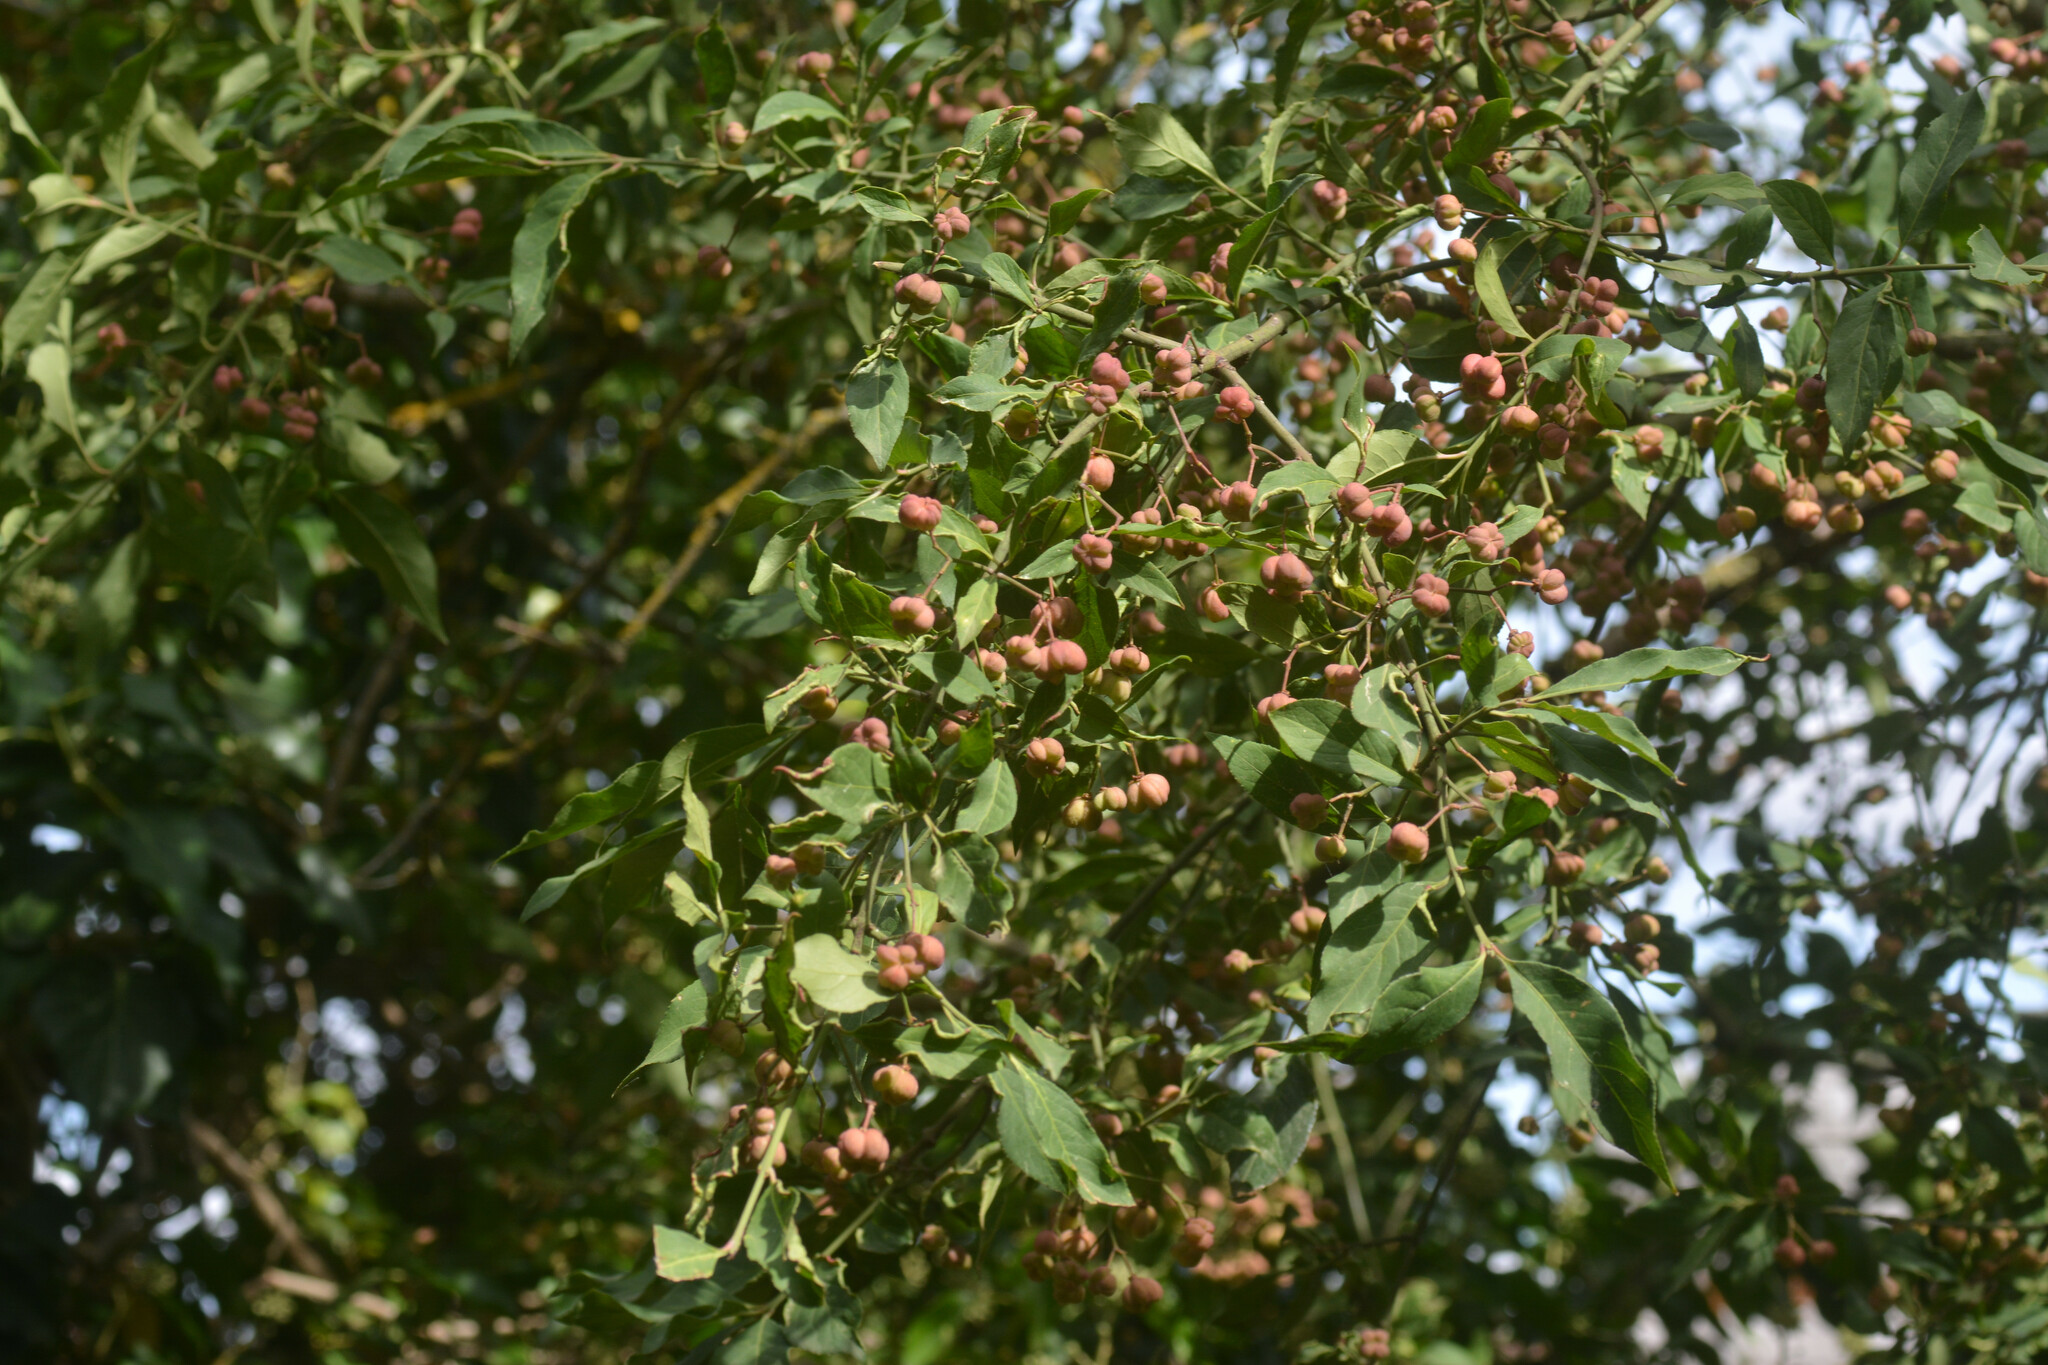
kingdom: Plantae
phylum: Tracheophyta
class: Magnoliopsida
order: Celastrales
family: Celastraceae
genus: Euonymus
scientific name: Euonymus europaeus
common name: Spindle
